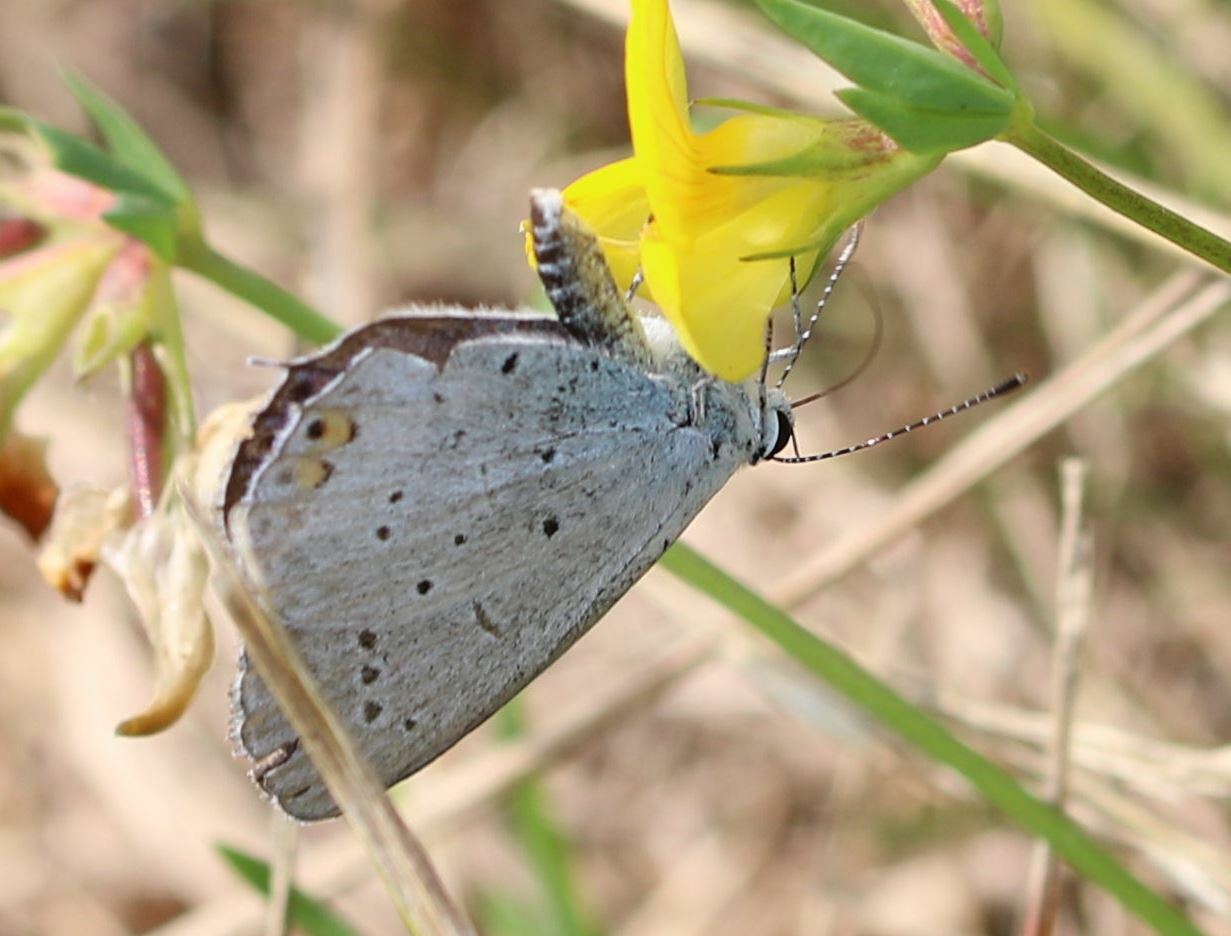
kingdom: Animalia
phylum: Arthropoda
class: Insecta
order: Lepidoptera
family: Lycaenidae
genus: Elkalyce
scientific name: Elkalyce argiades
